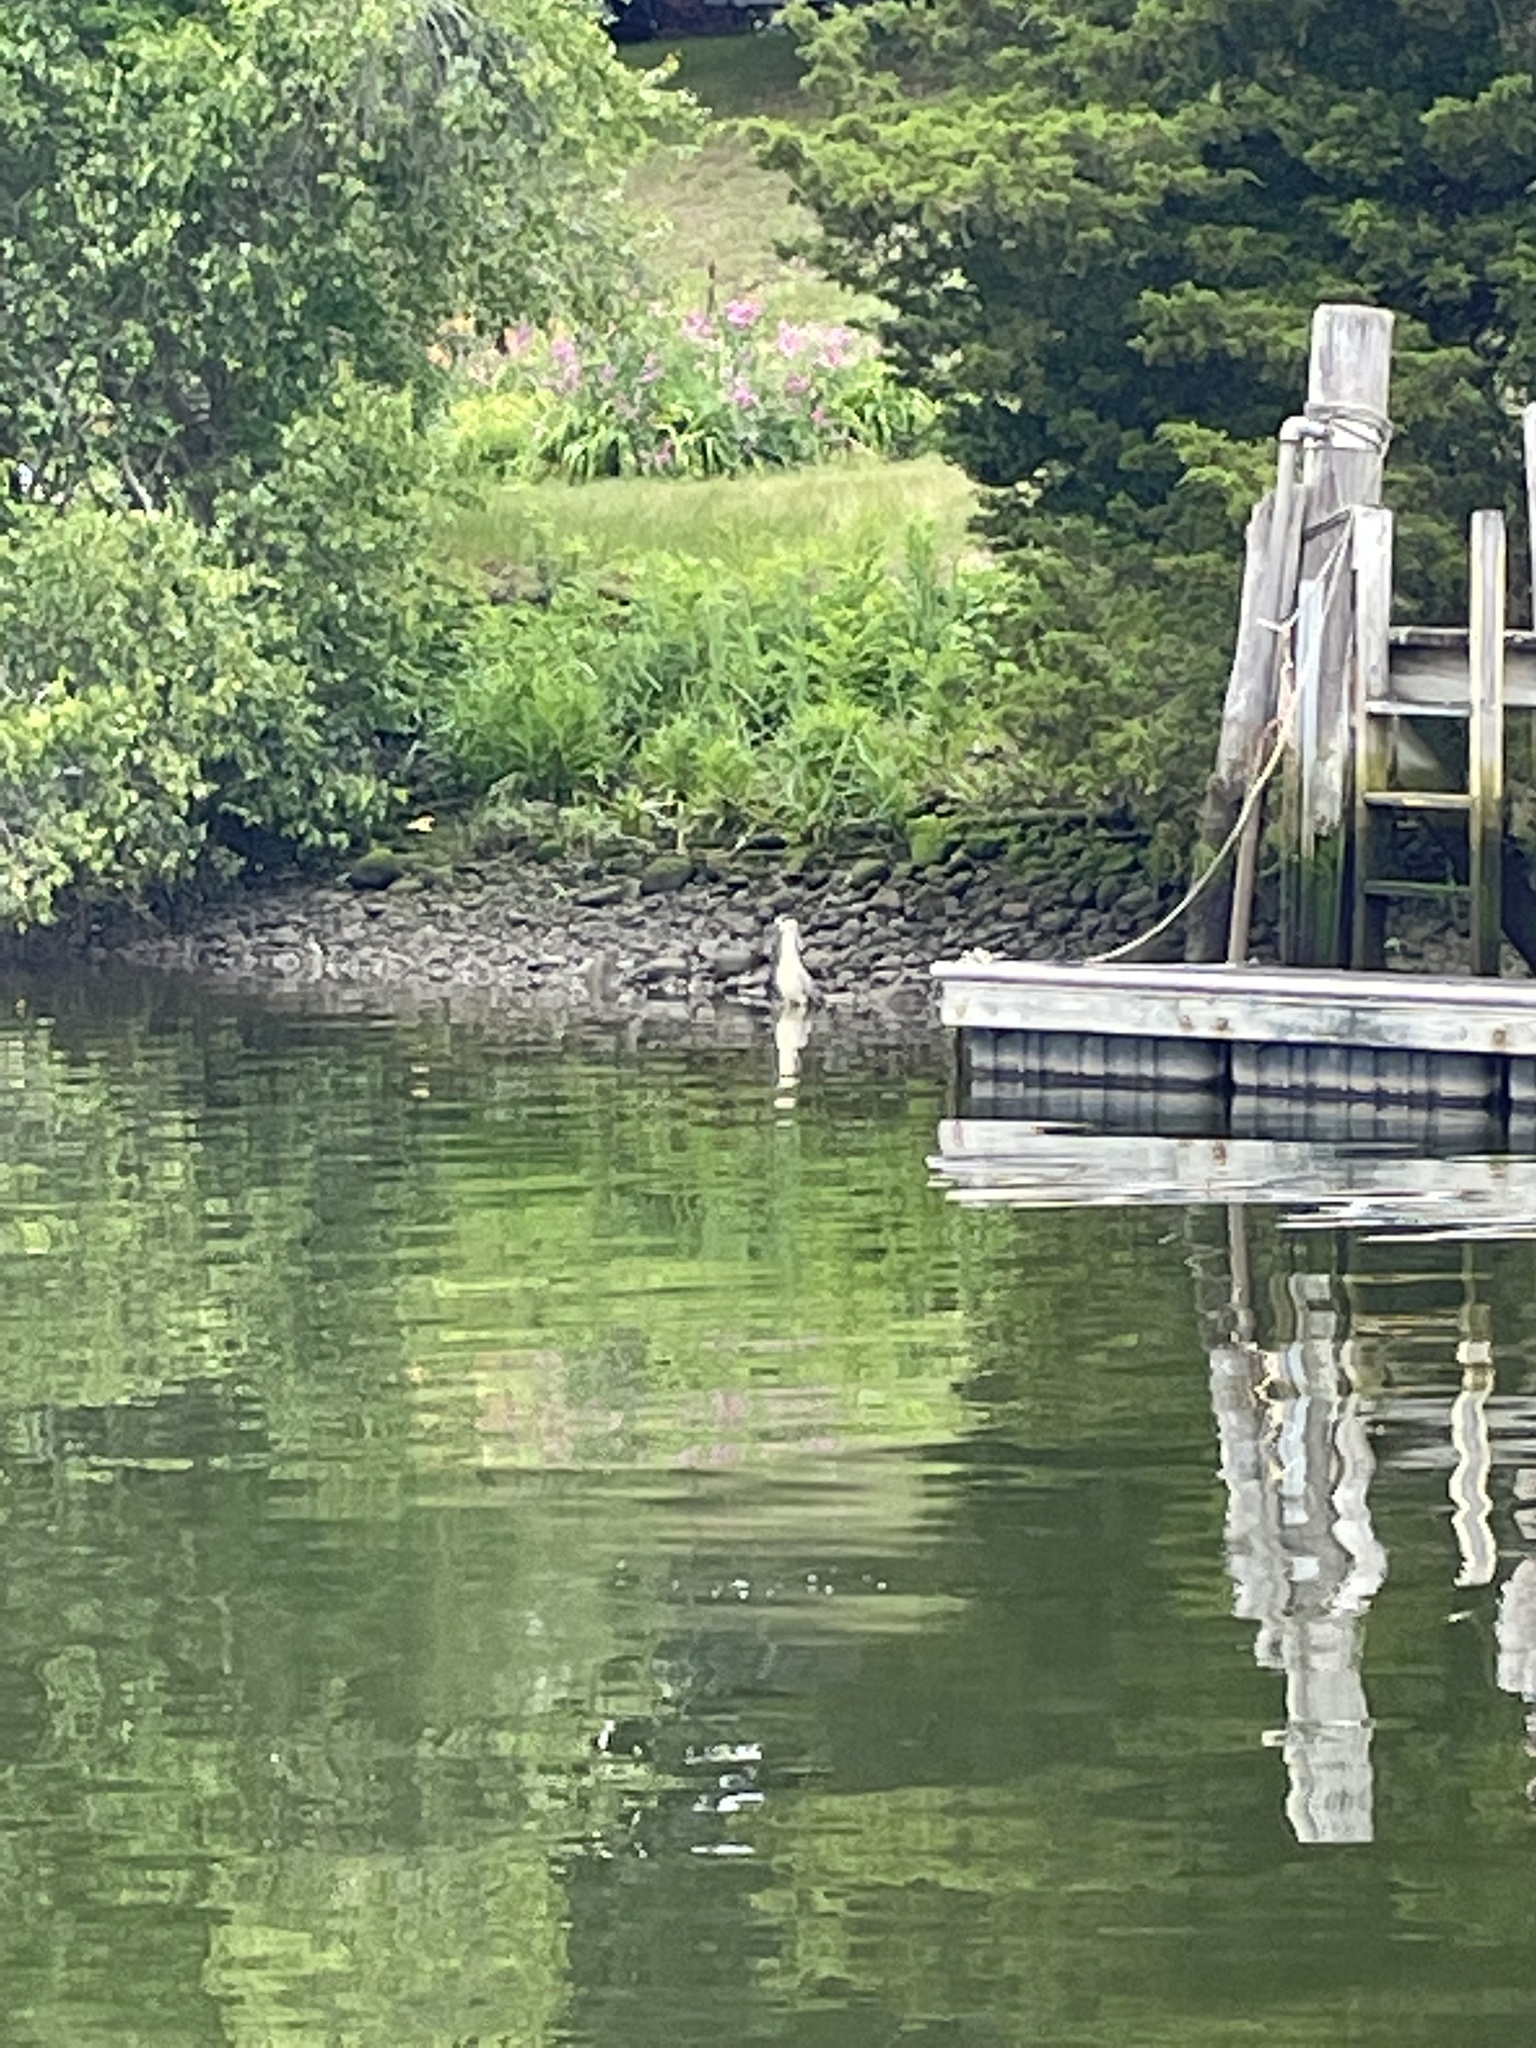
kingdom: Animalia
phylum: Chordata
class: Aves
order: Pelecaniformes
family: Ardeidae
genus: Nycticorax
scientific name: Nycticorax nycticorax
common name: Black-crowned night heron
